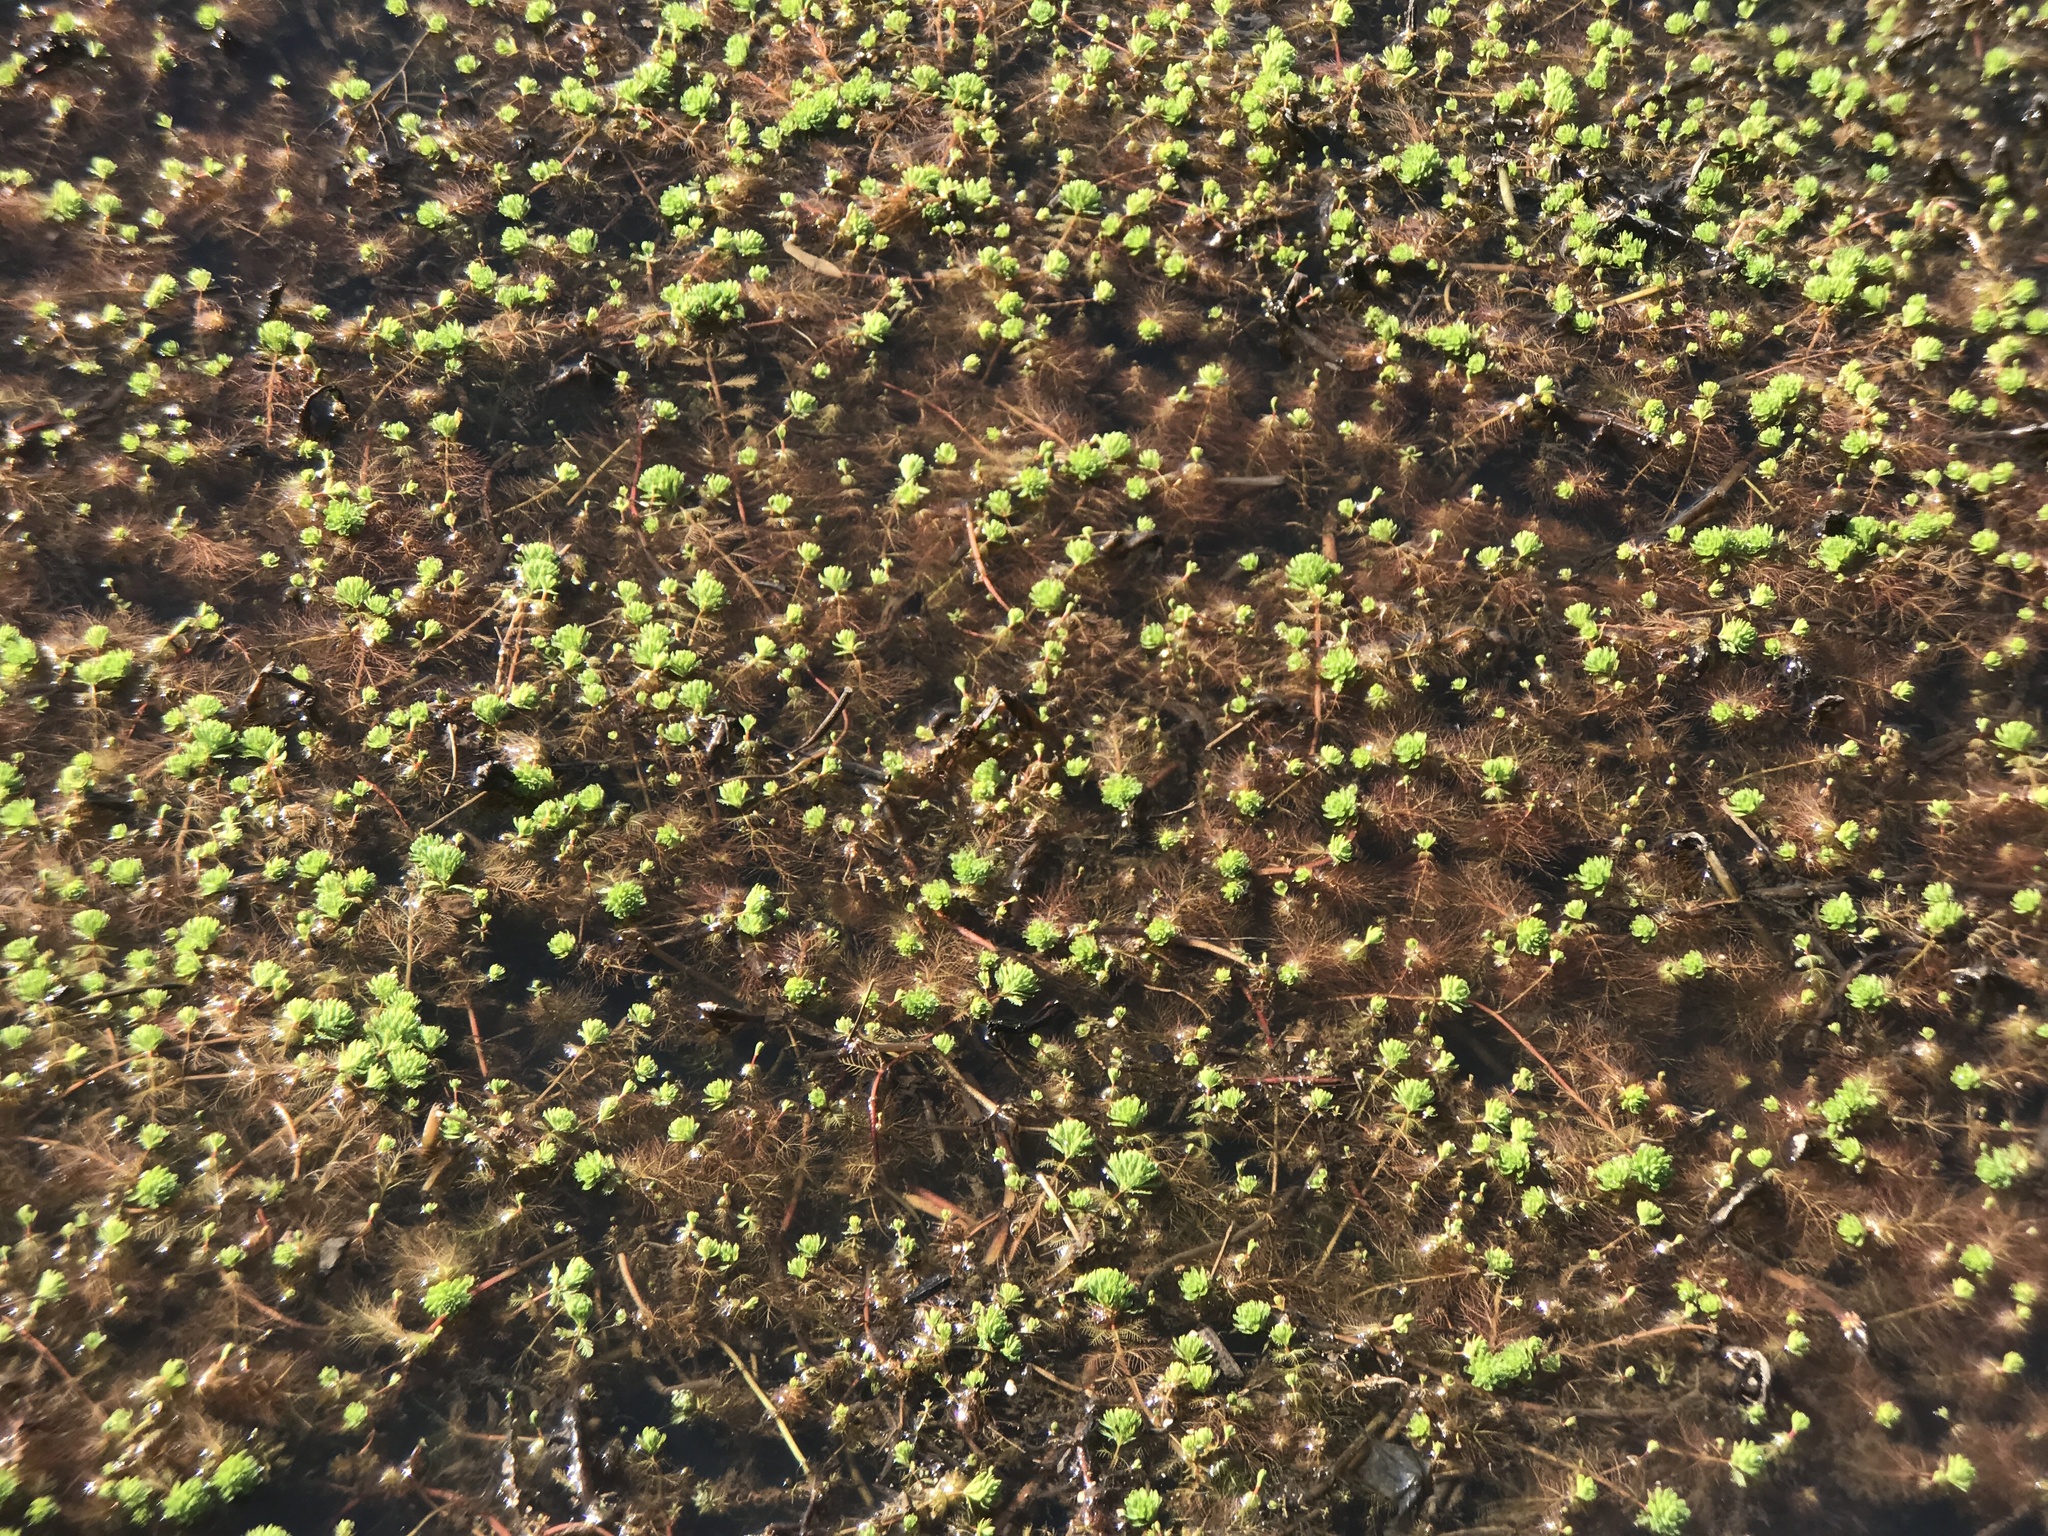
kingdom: Plantae
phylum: Tracheophyta
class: Magnoliopsida
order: Saxifragales
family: Haloragaceae
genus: Myriophyllum
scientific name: Myriophyllum aquaticum
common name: Parrot's feather
